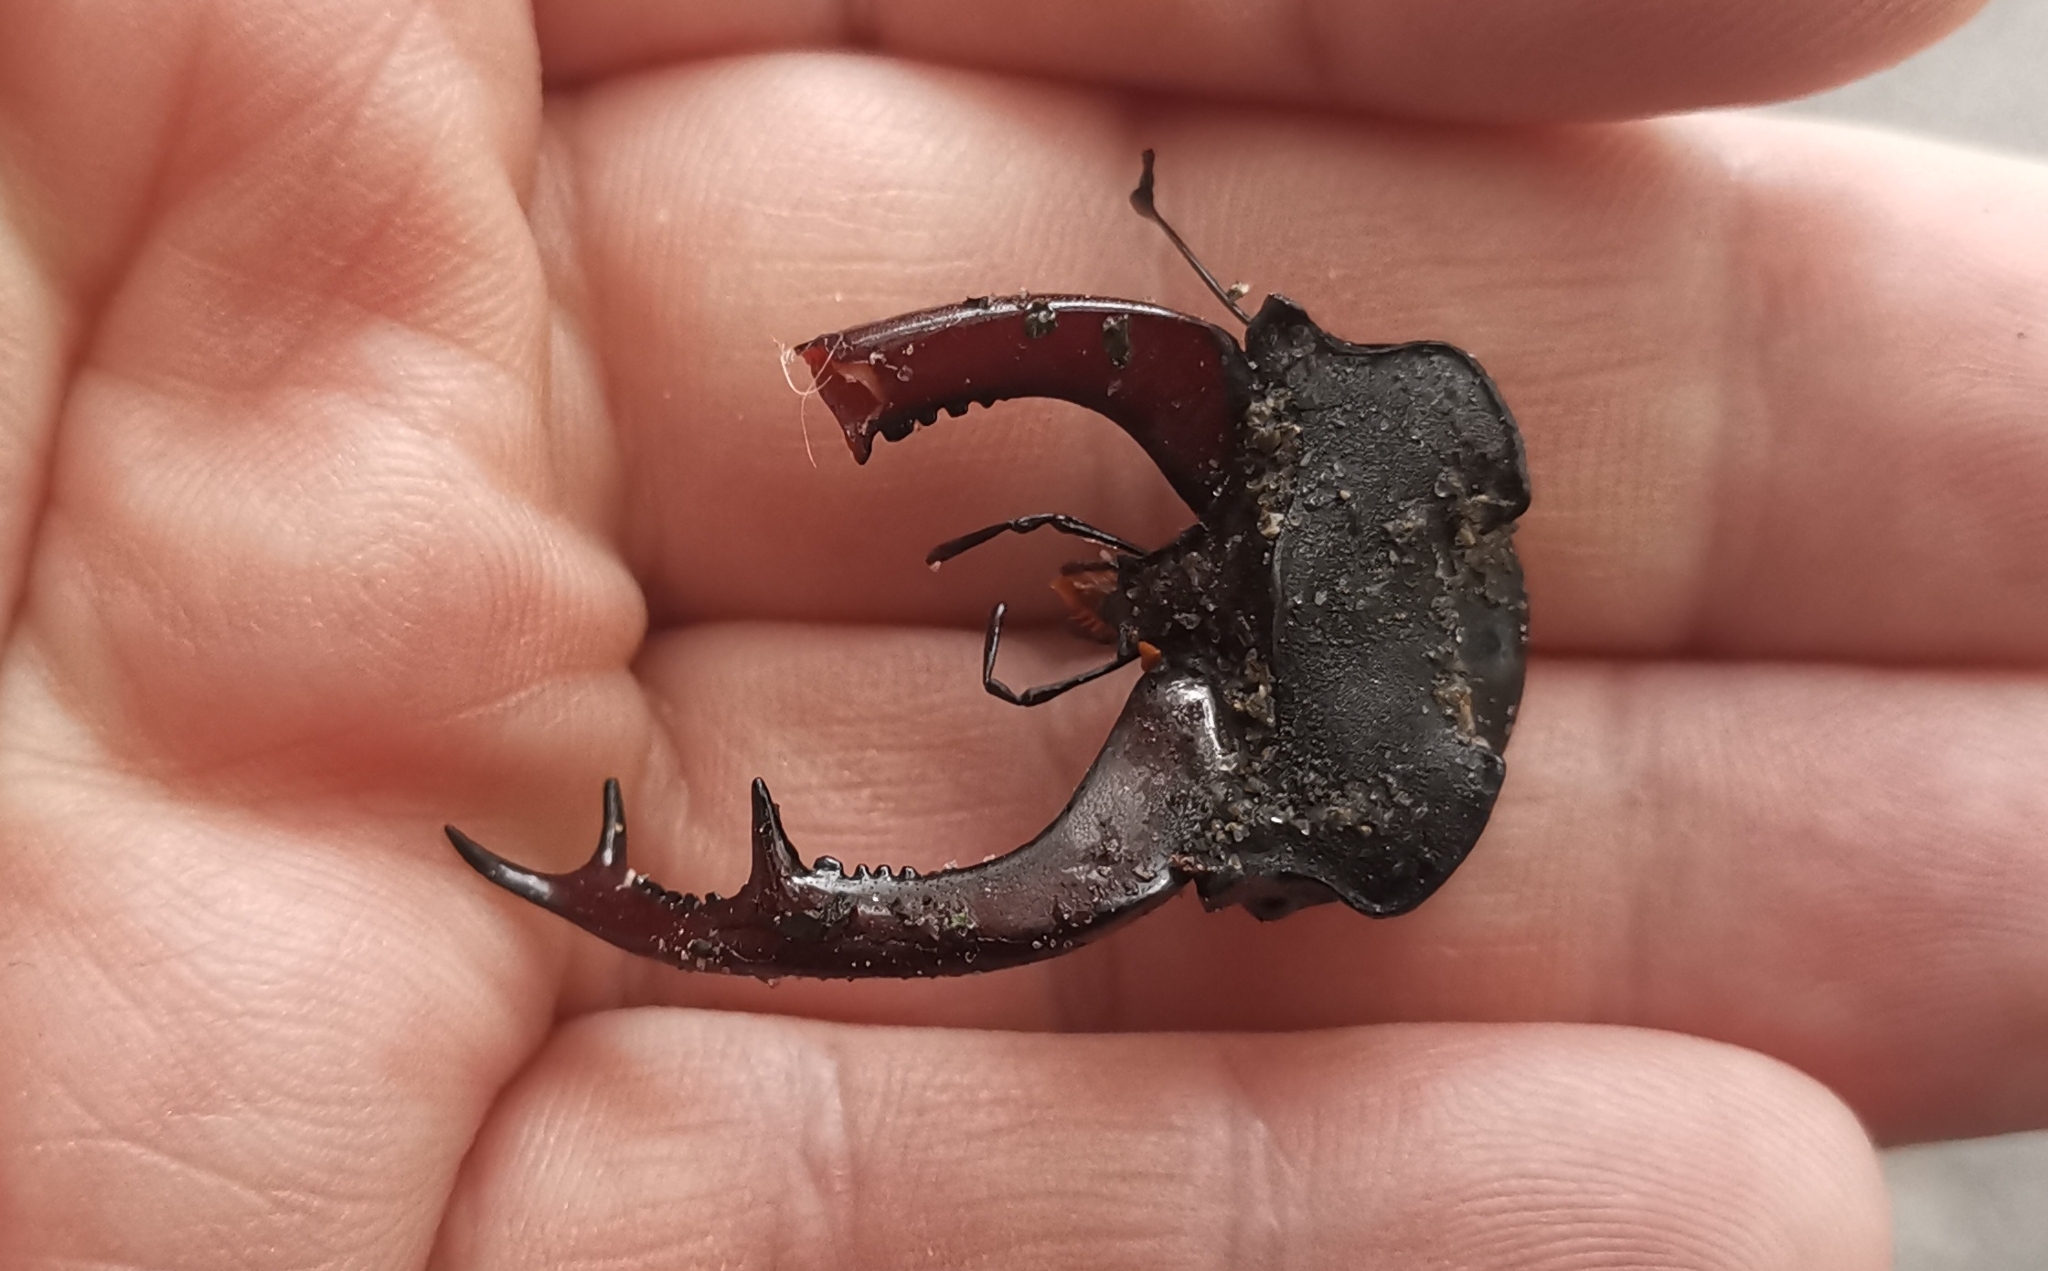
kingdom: Animalia
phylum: Arthropoda
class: Insecta
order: Coleoptera
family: Lucanidae
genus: Lucanus
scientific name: Lucanus cervus
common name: Stag beetle
